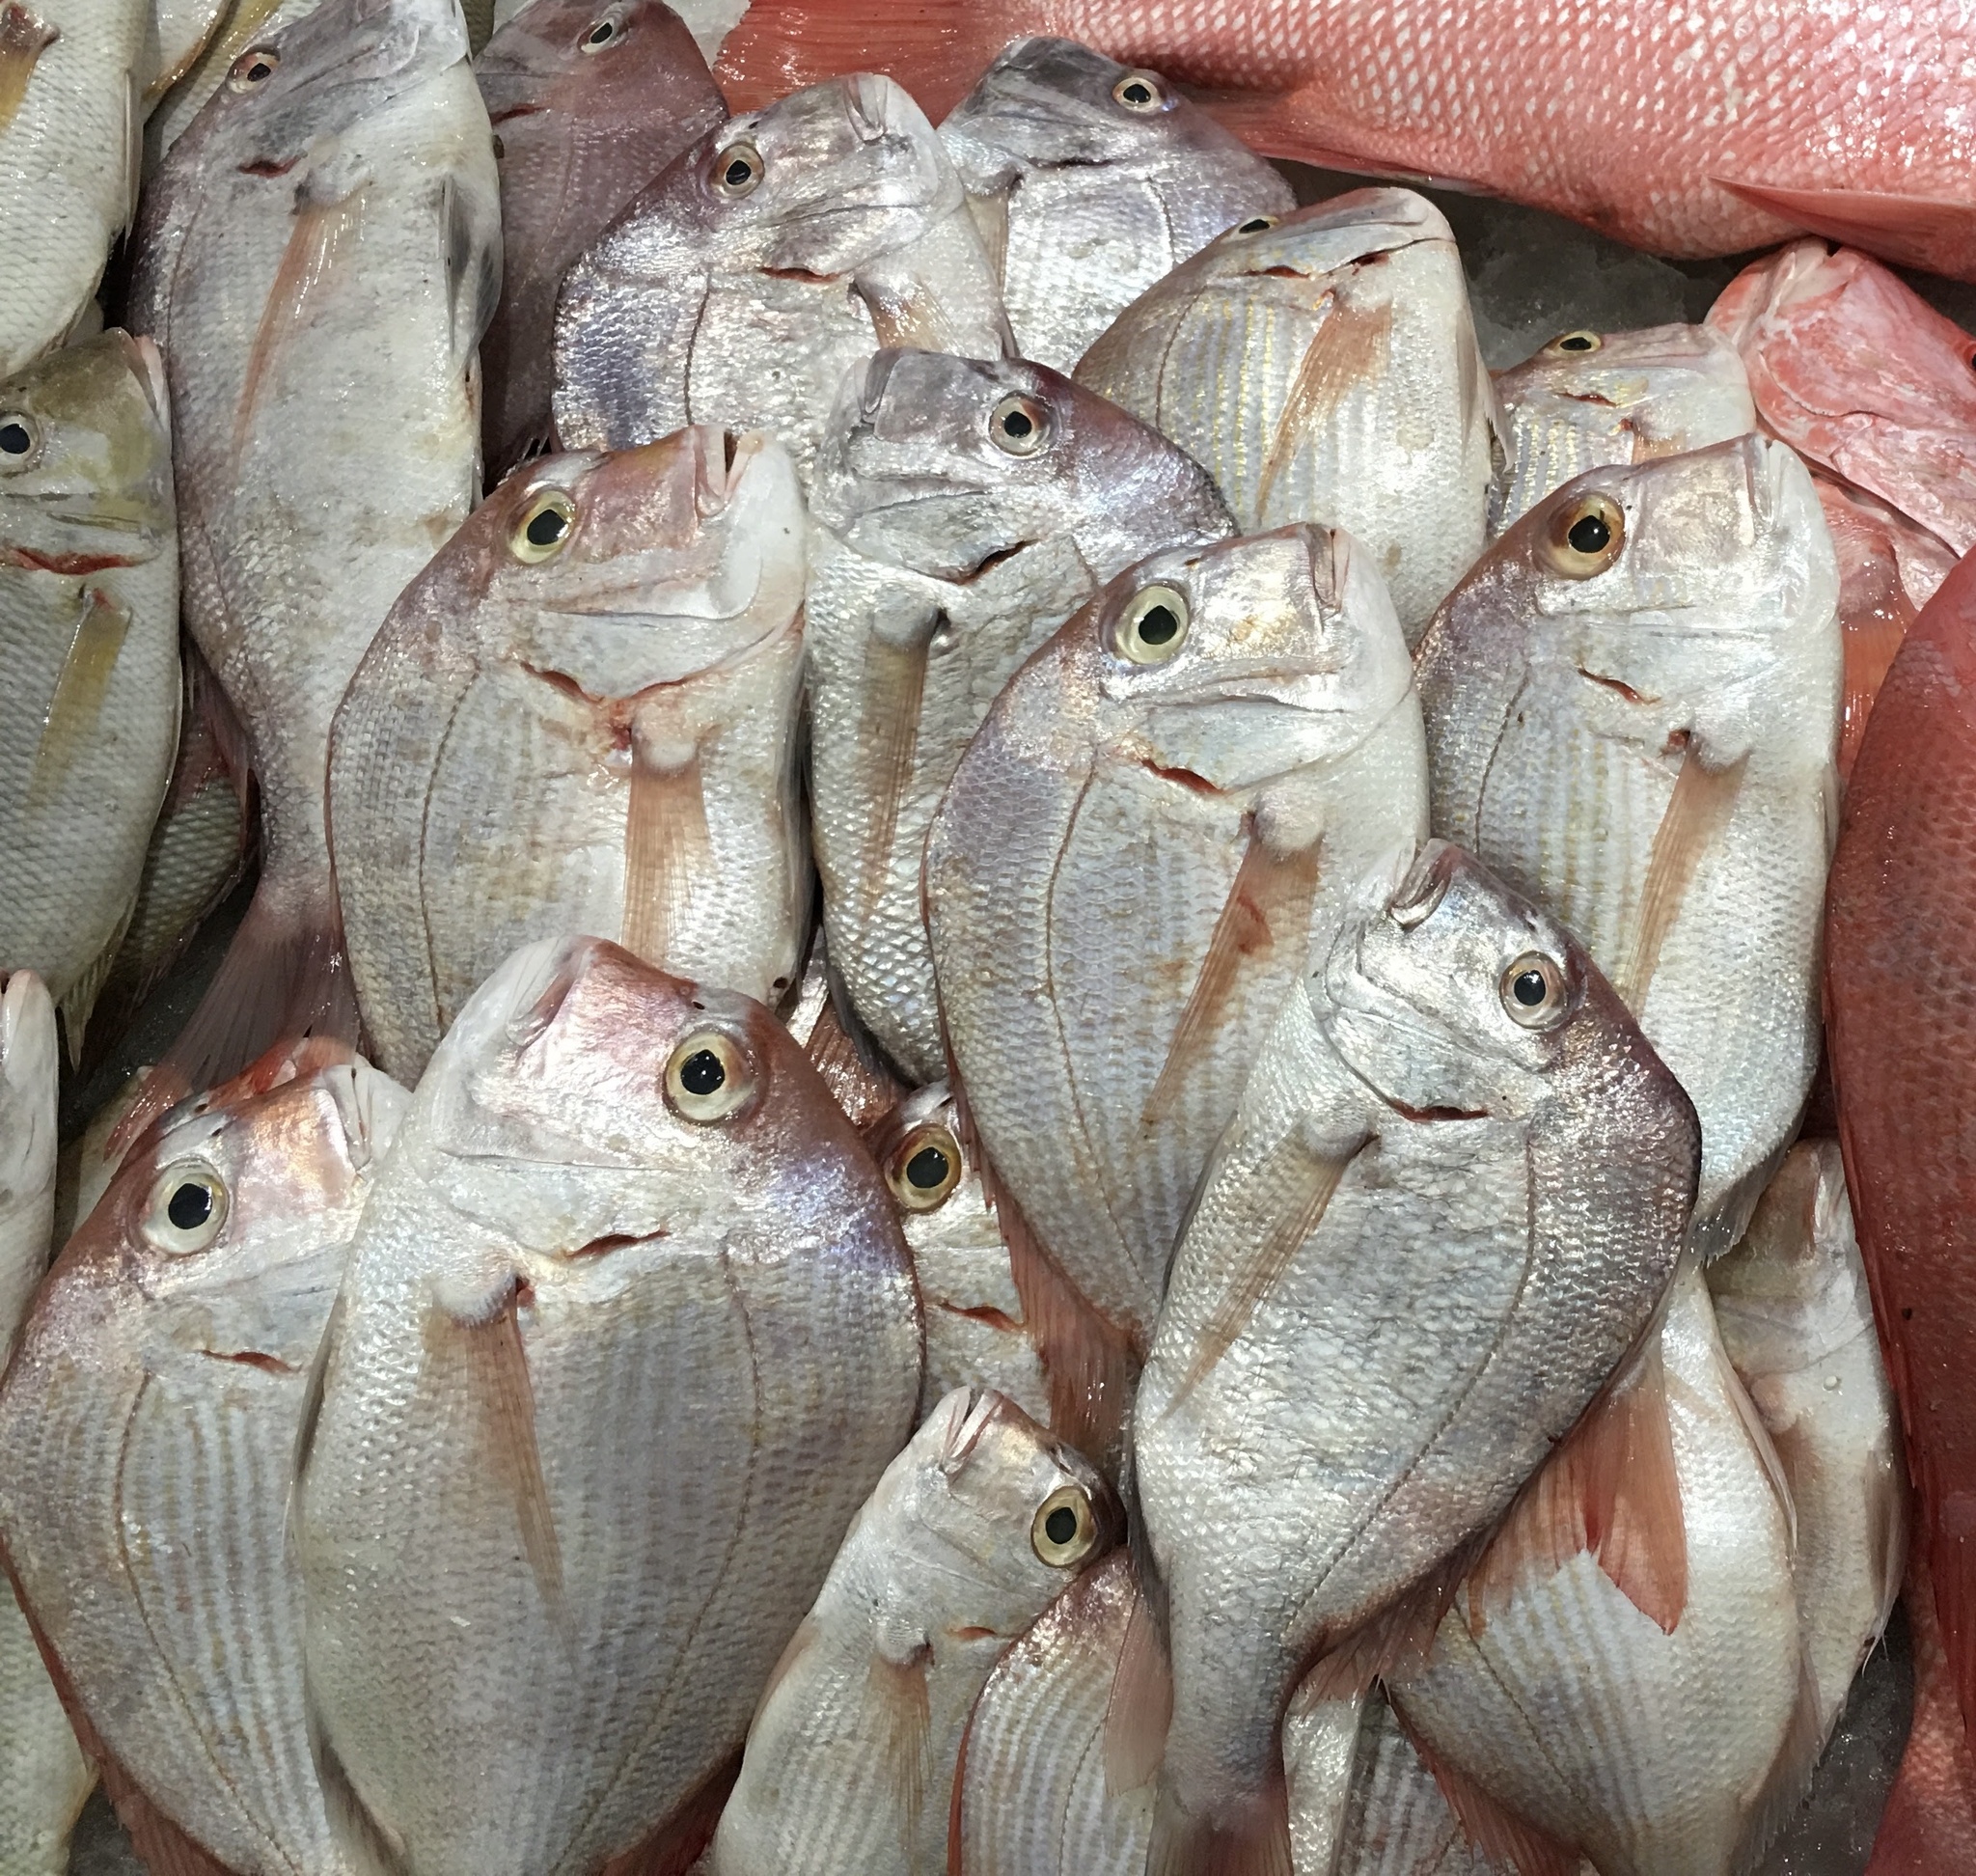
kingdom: Animalia
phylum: Chordata
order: Perciformes
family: Sparidae
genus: Argyrops
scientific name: Argyrops spinifer
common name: King soldier bream
